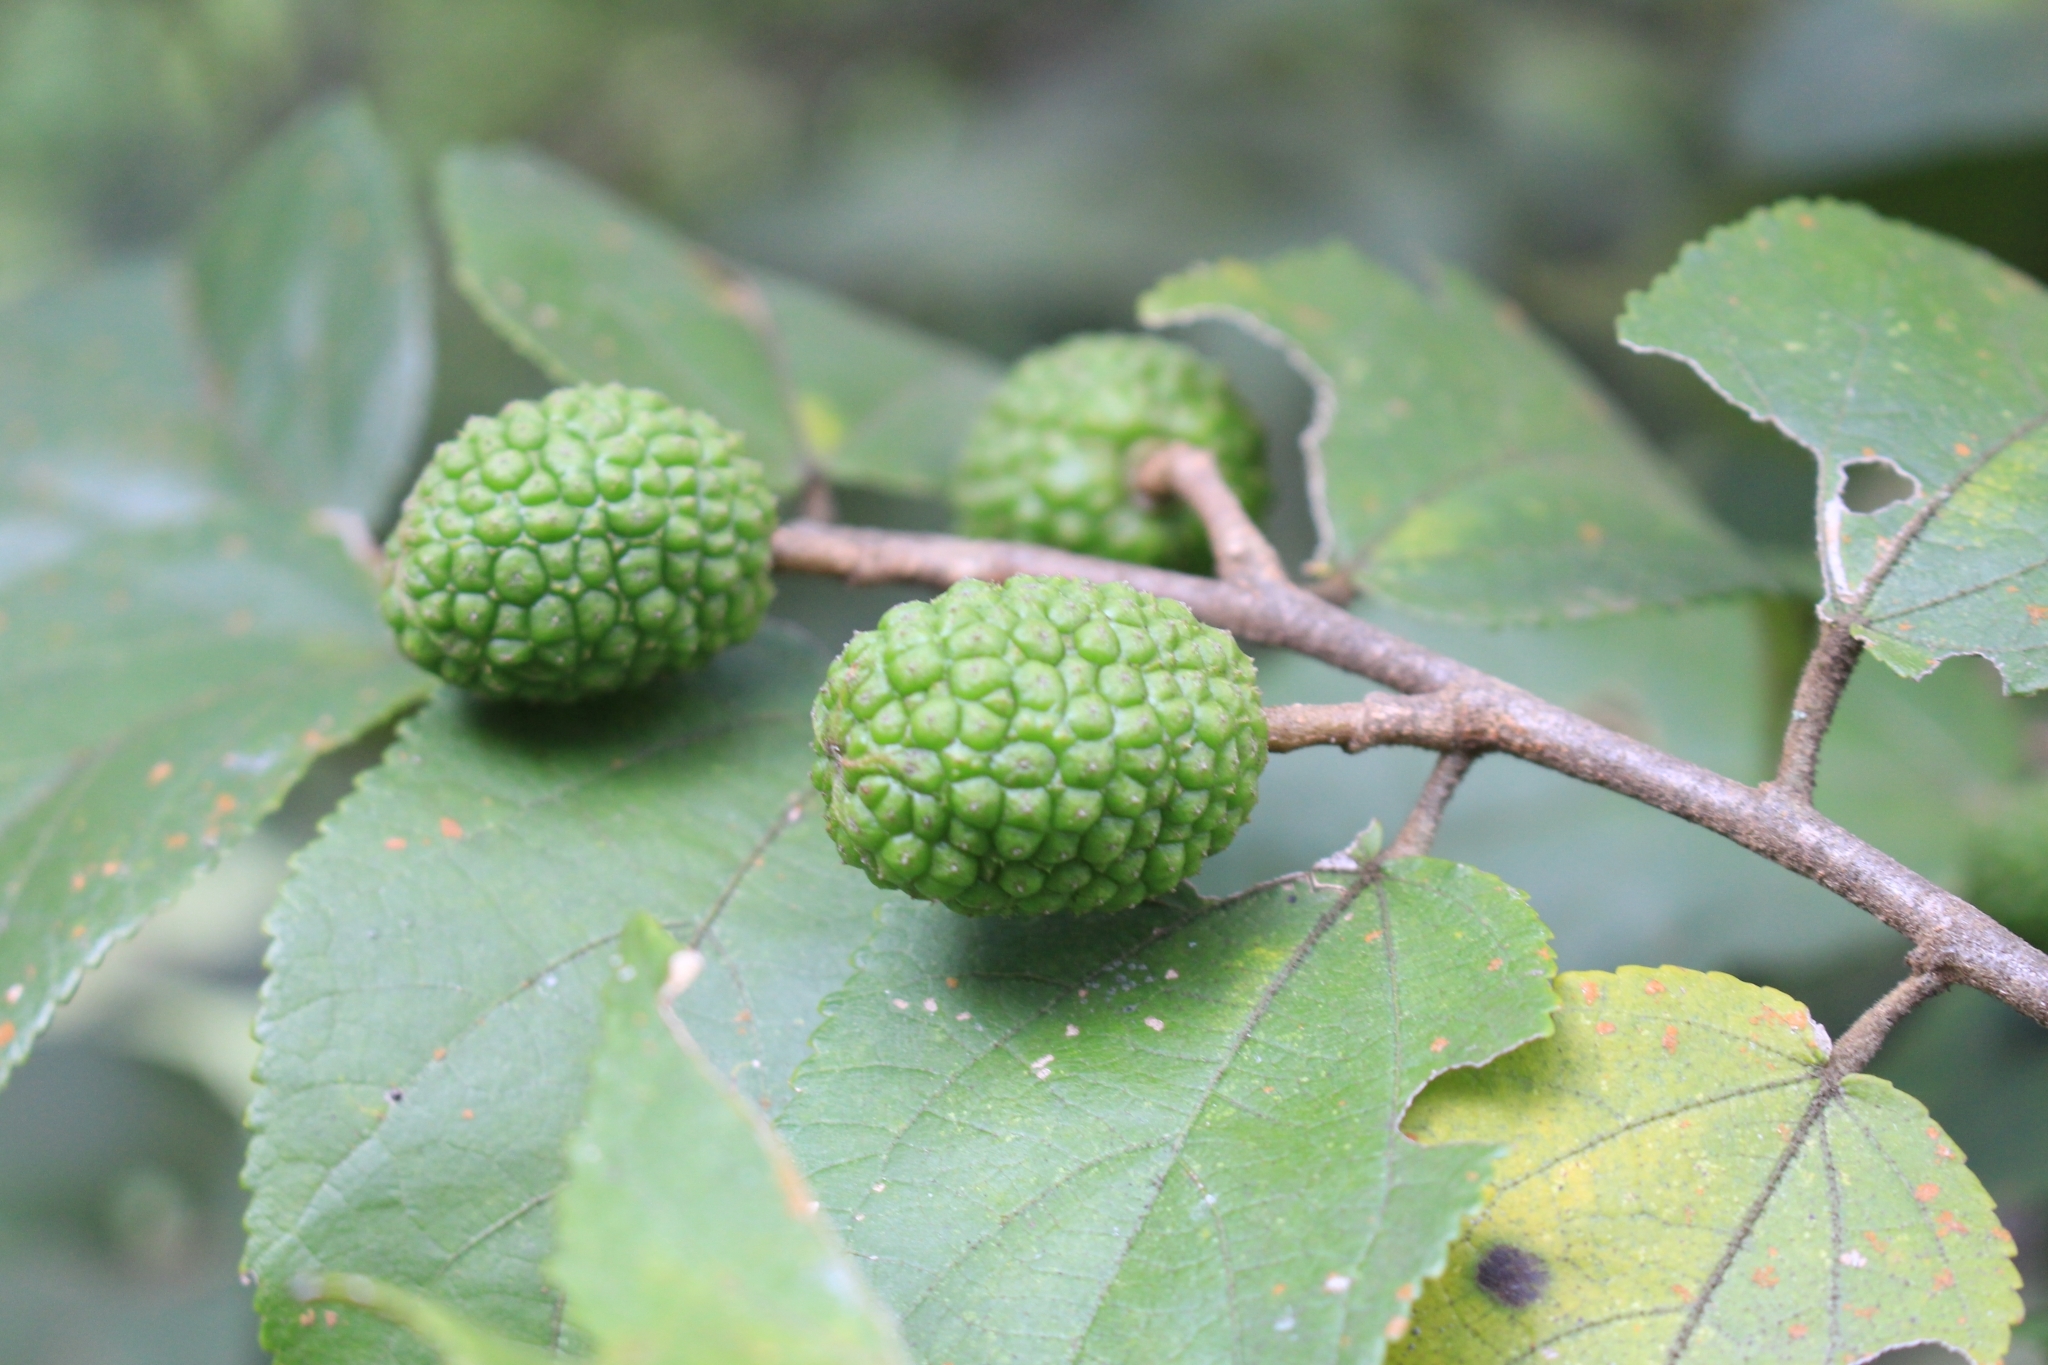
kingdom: Plantae
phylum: Tracheophyta
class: Magnoliopsida
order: Malvales
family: Malvaceae
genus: Guazuma
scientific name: Guazuma ulmifolia
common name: Bastard-cedar
